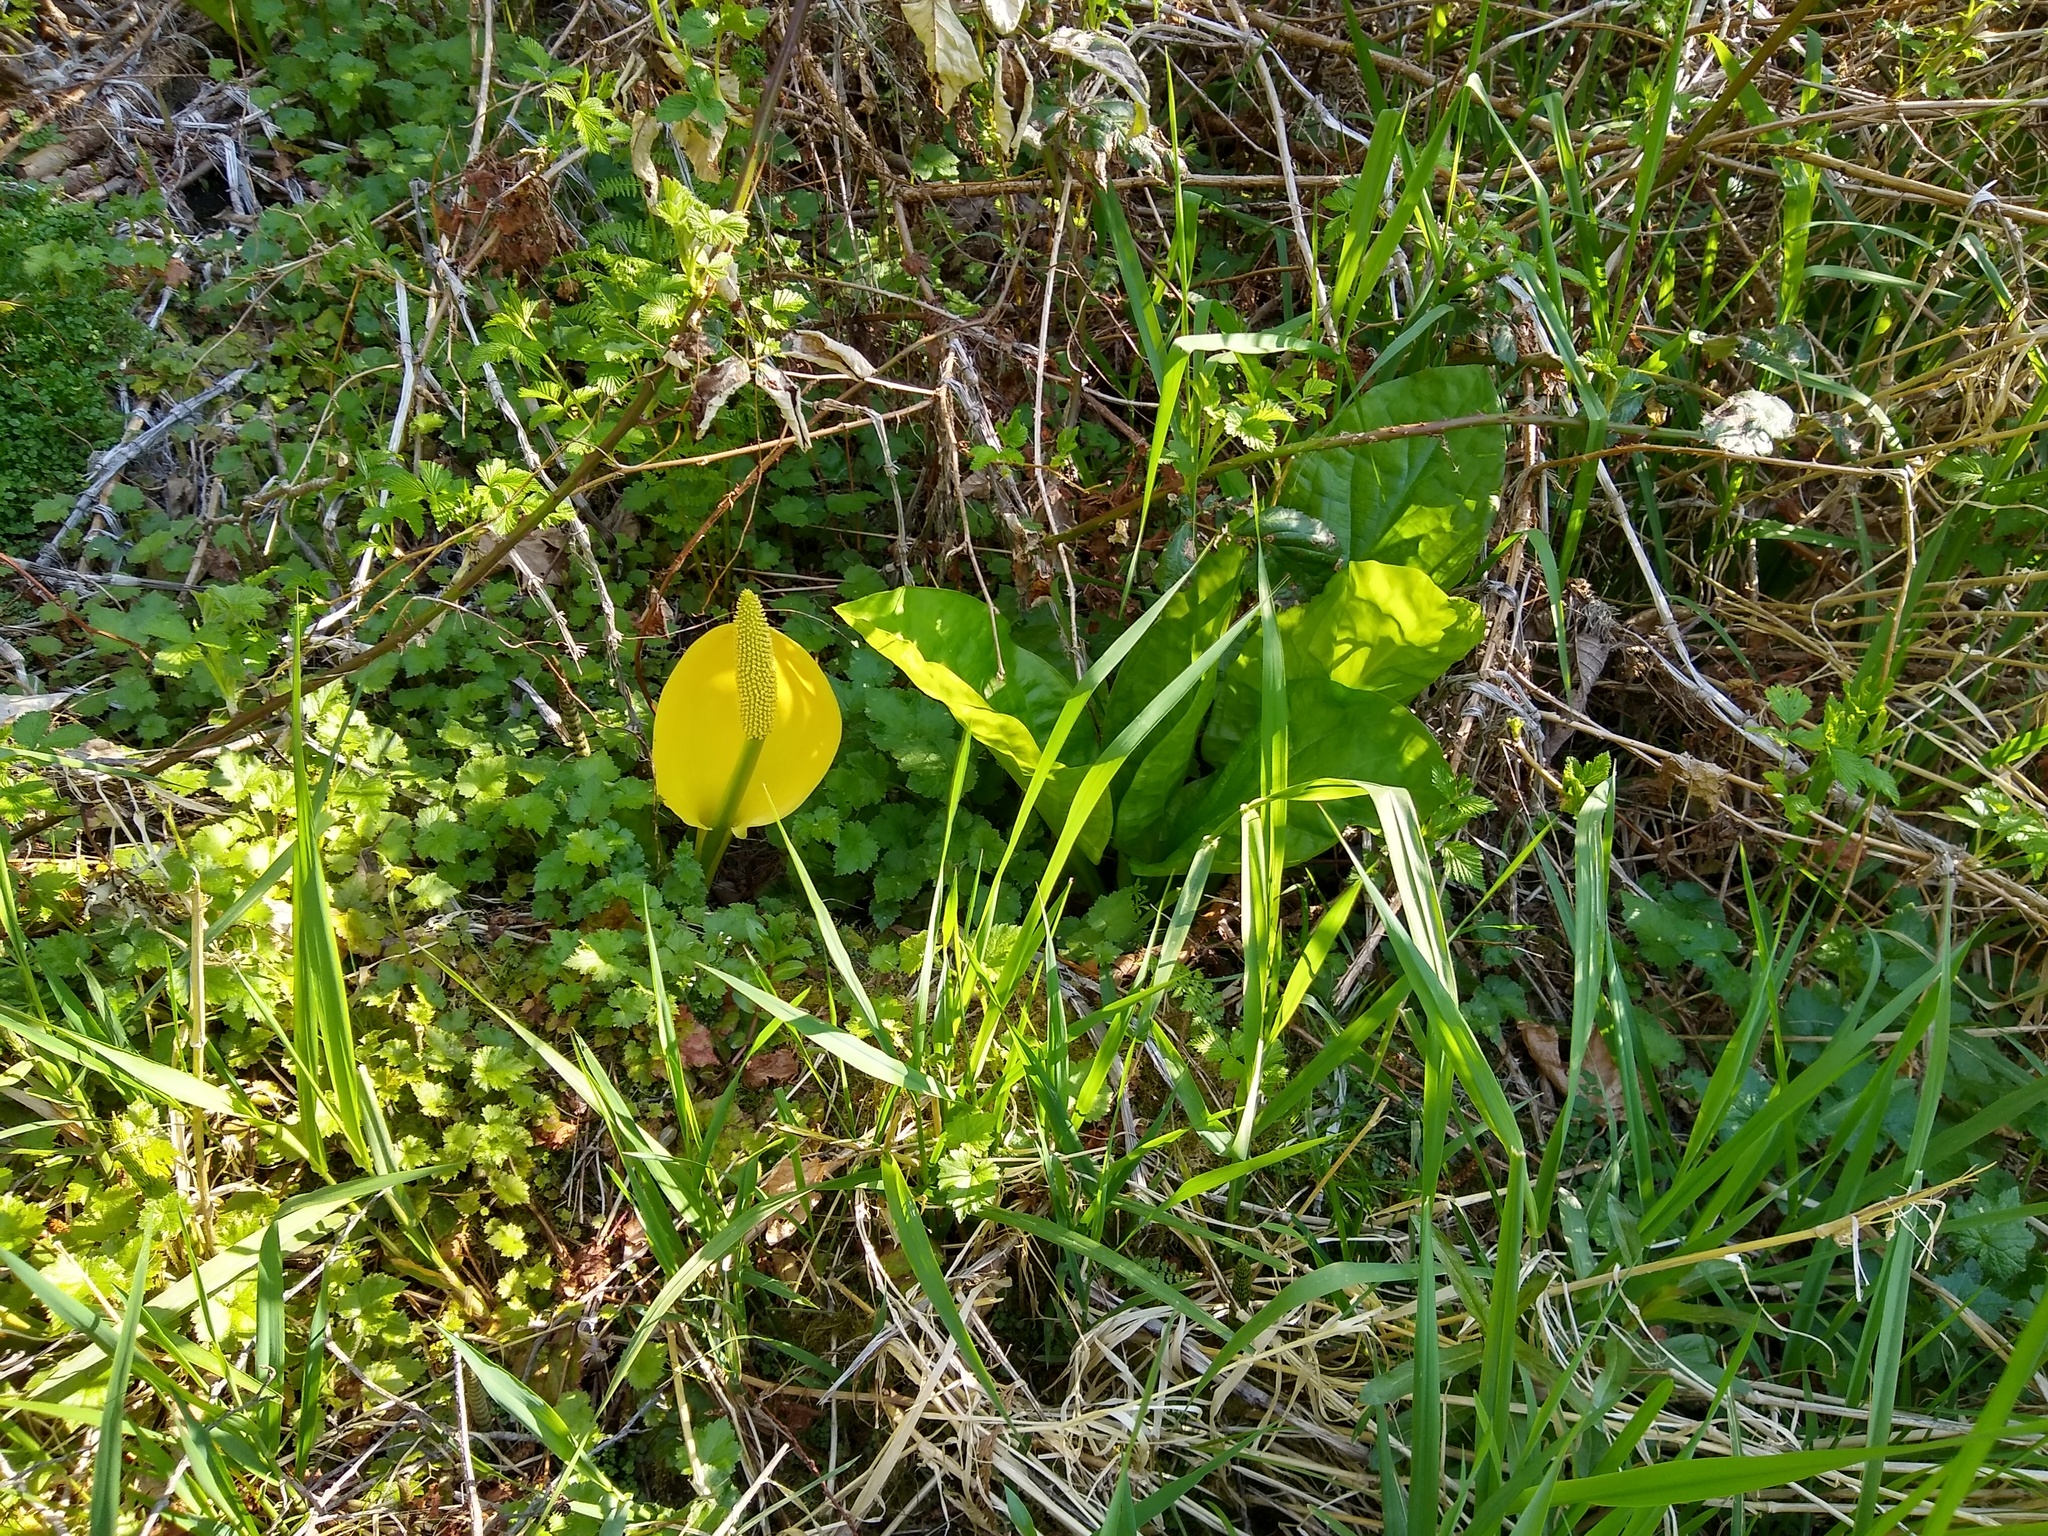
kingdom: Plantae
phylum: Tracheophyta
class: Liliopsida
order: Alismatales
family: Araceae
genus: Lysichiton
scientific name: Lysichiton americanus
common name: American skunk cabbage
